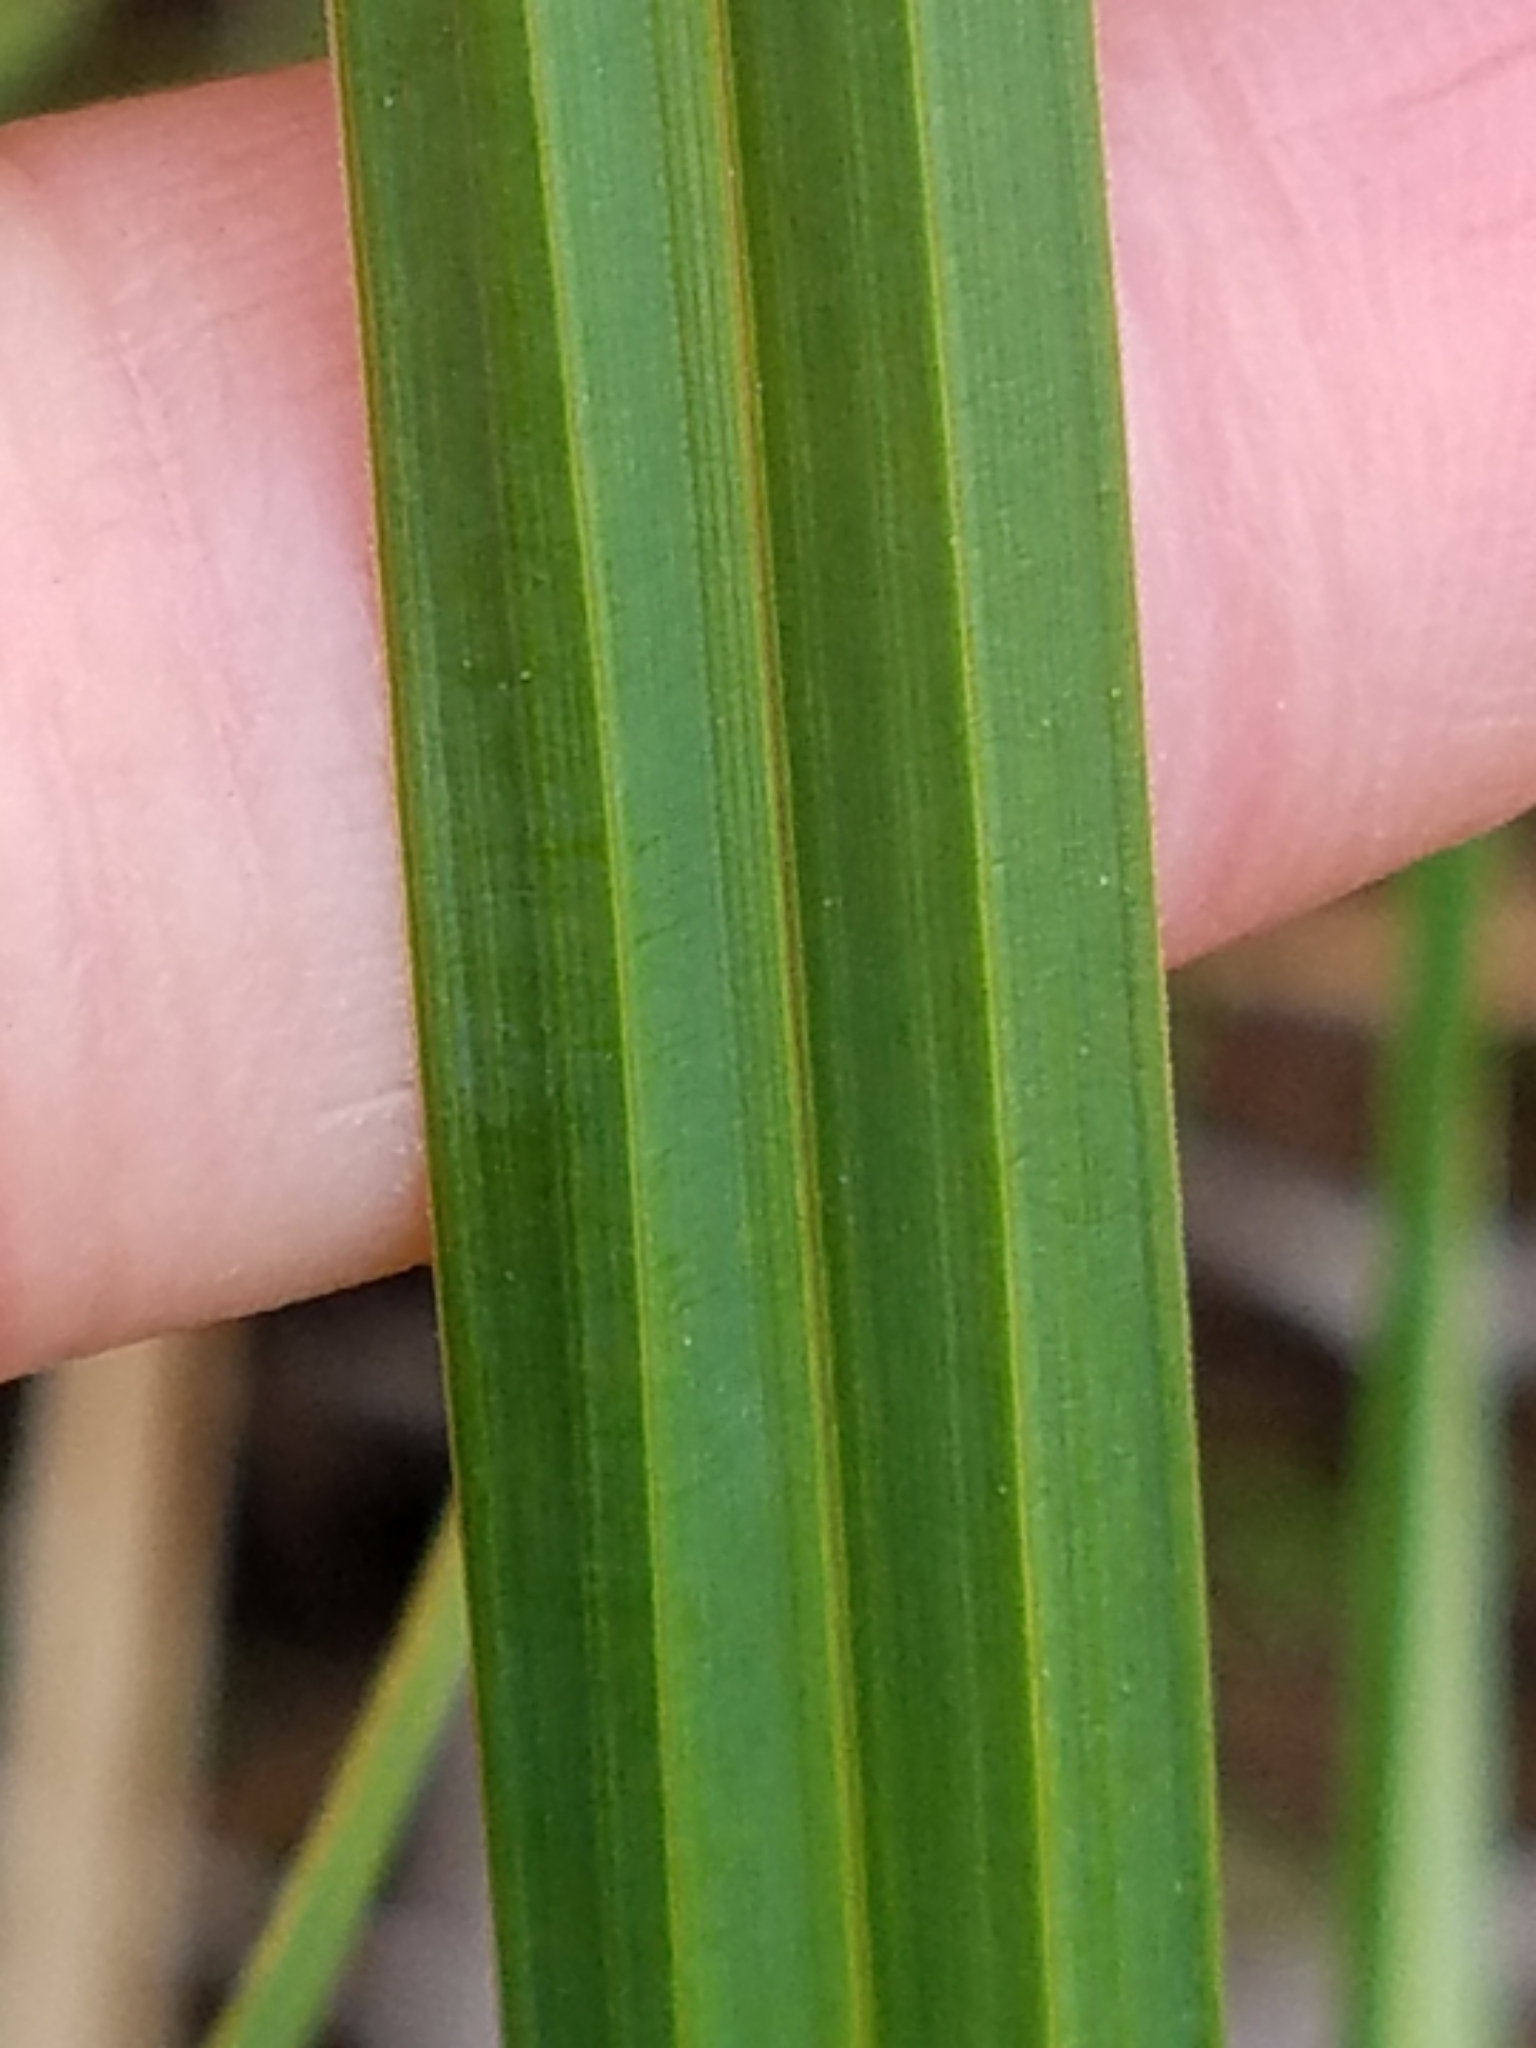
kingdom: Plantae
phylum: Tracheophyta
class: Liliopsida
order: Poales
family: Cyperaceae
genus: Carex
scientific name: Carex lacustris
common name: Common lake sedge
